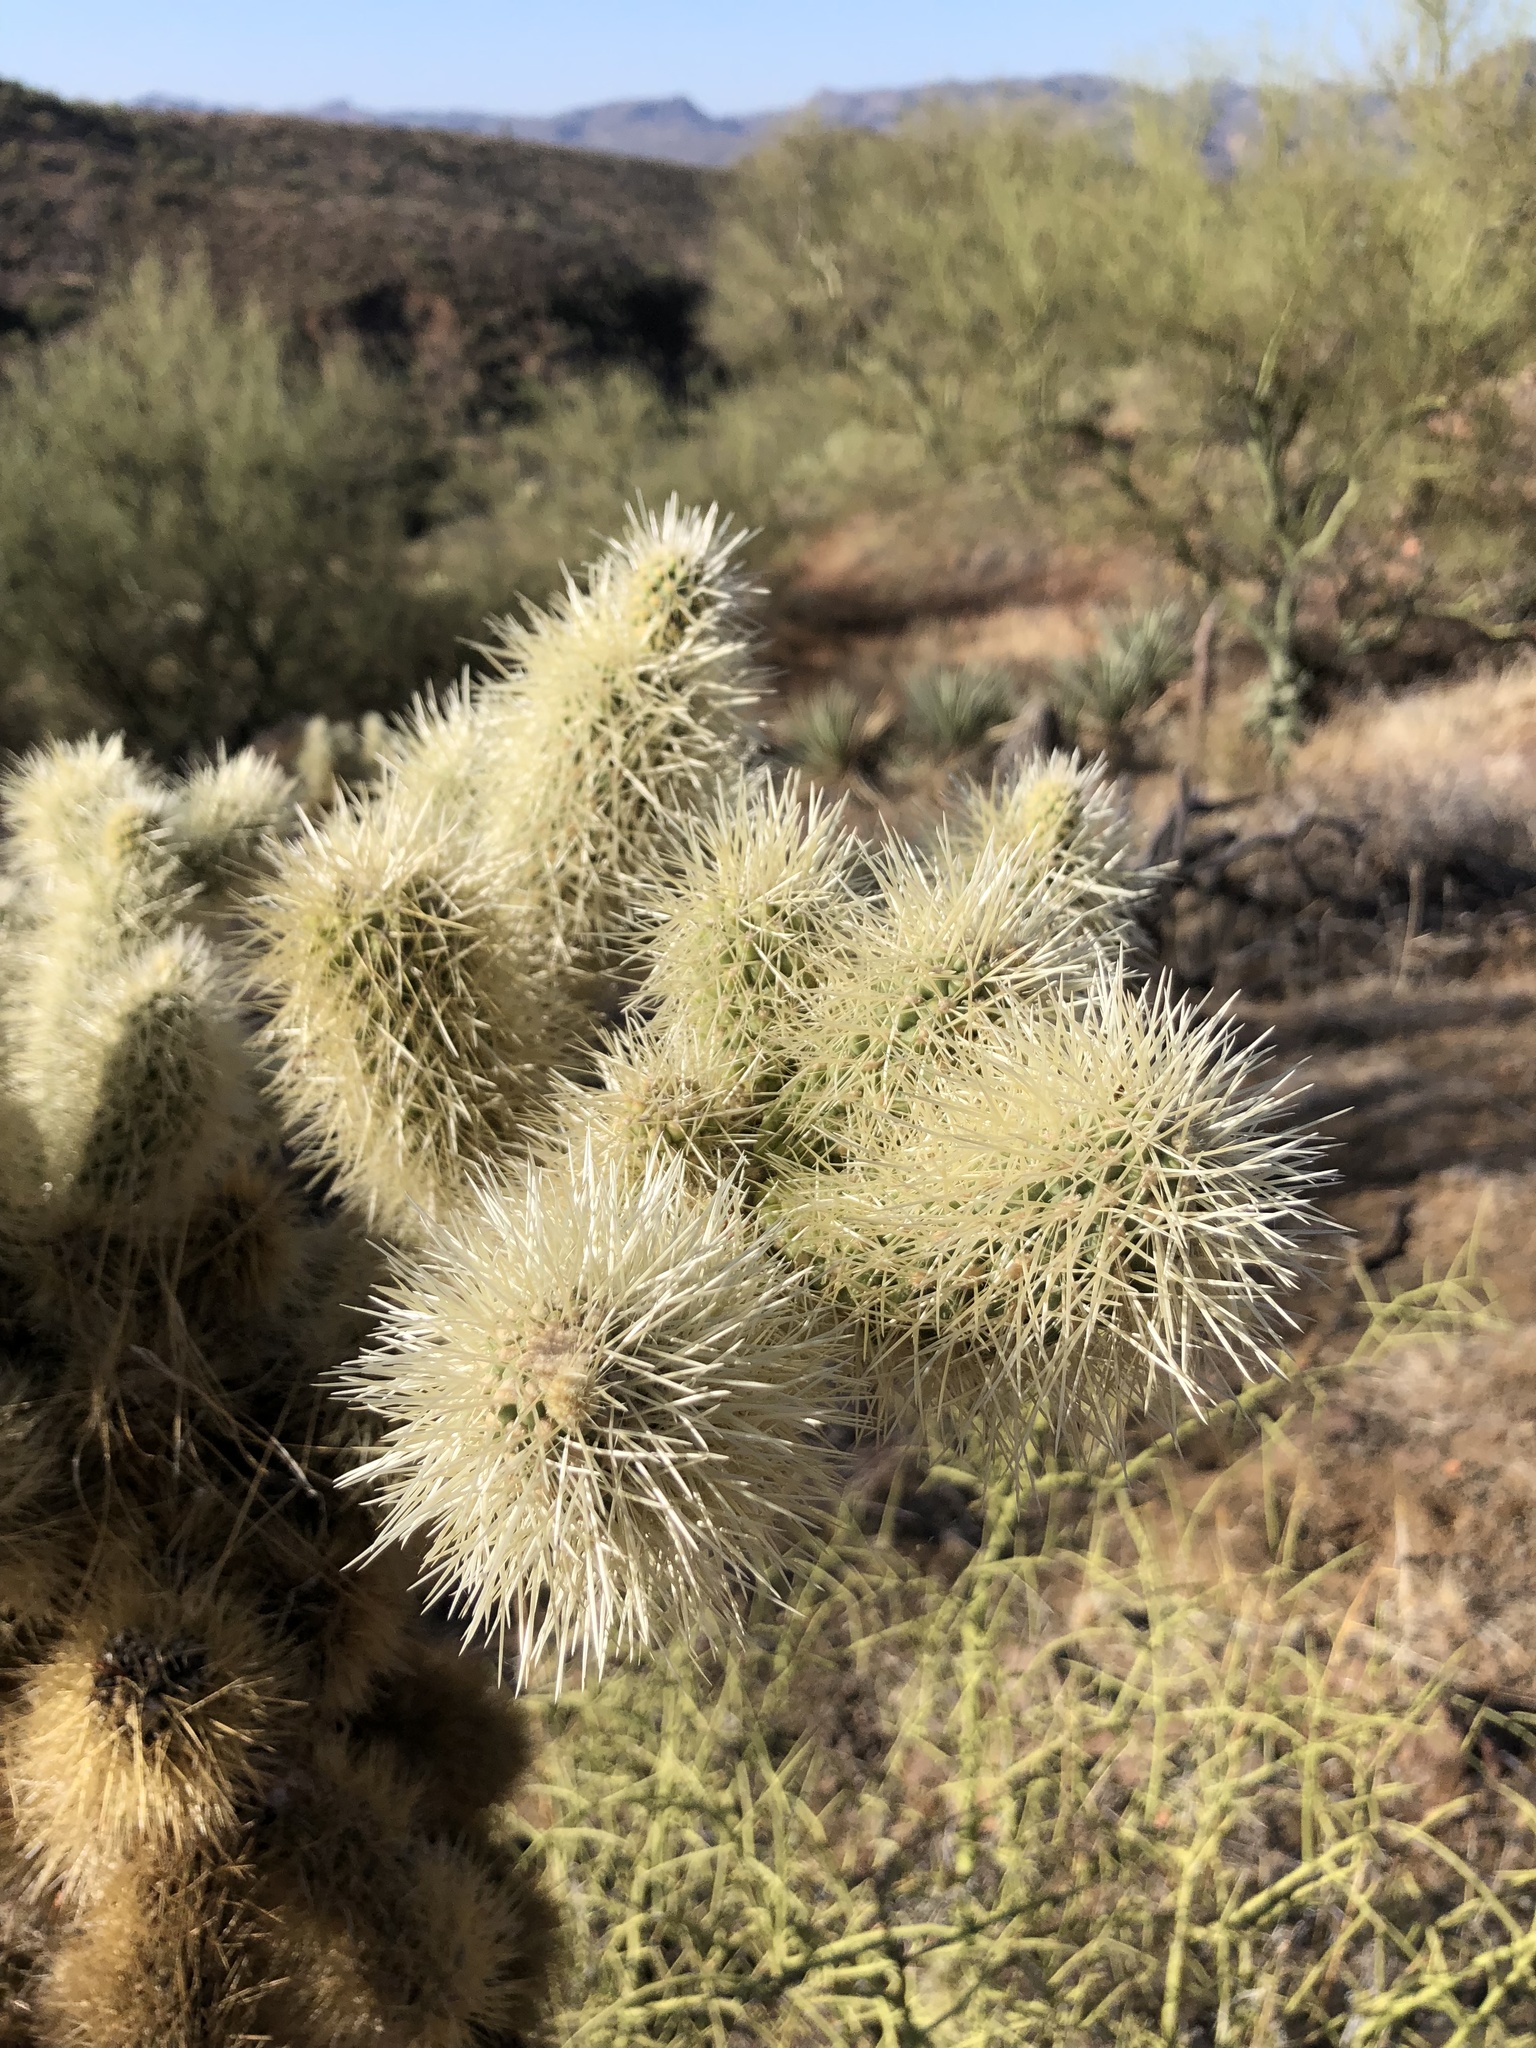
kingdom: Plantae
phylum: Tracheophyta
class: Magnoliopsida
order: Caryophyllales
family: Cactaceae
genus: Cylindropuntia
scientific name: Cylindropuntia fosbergii
